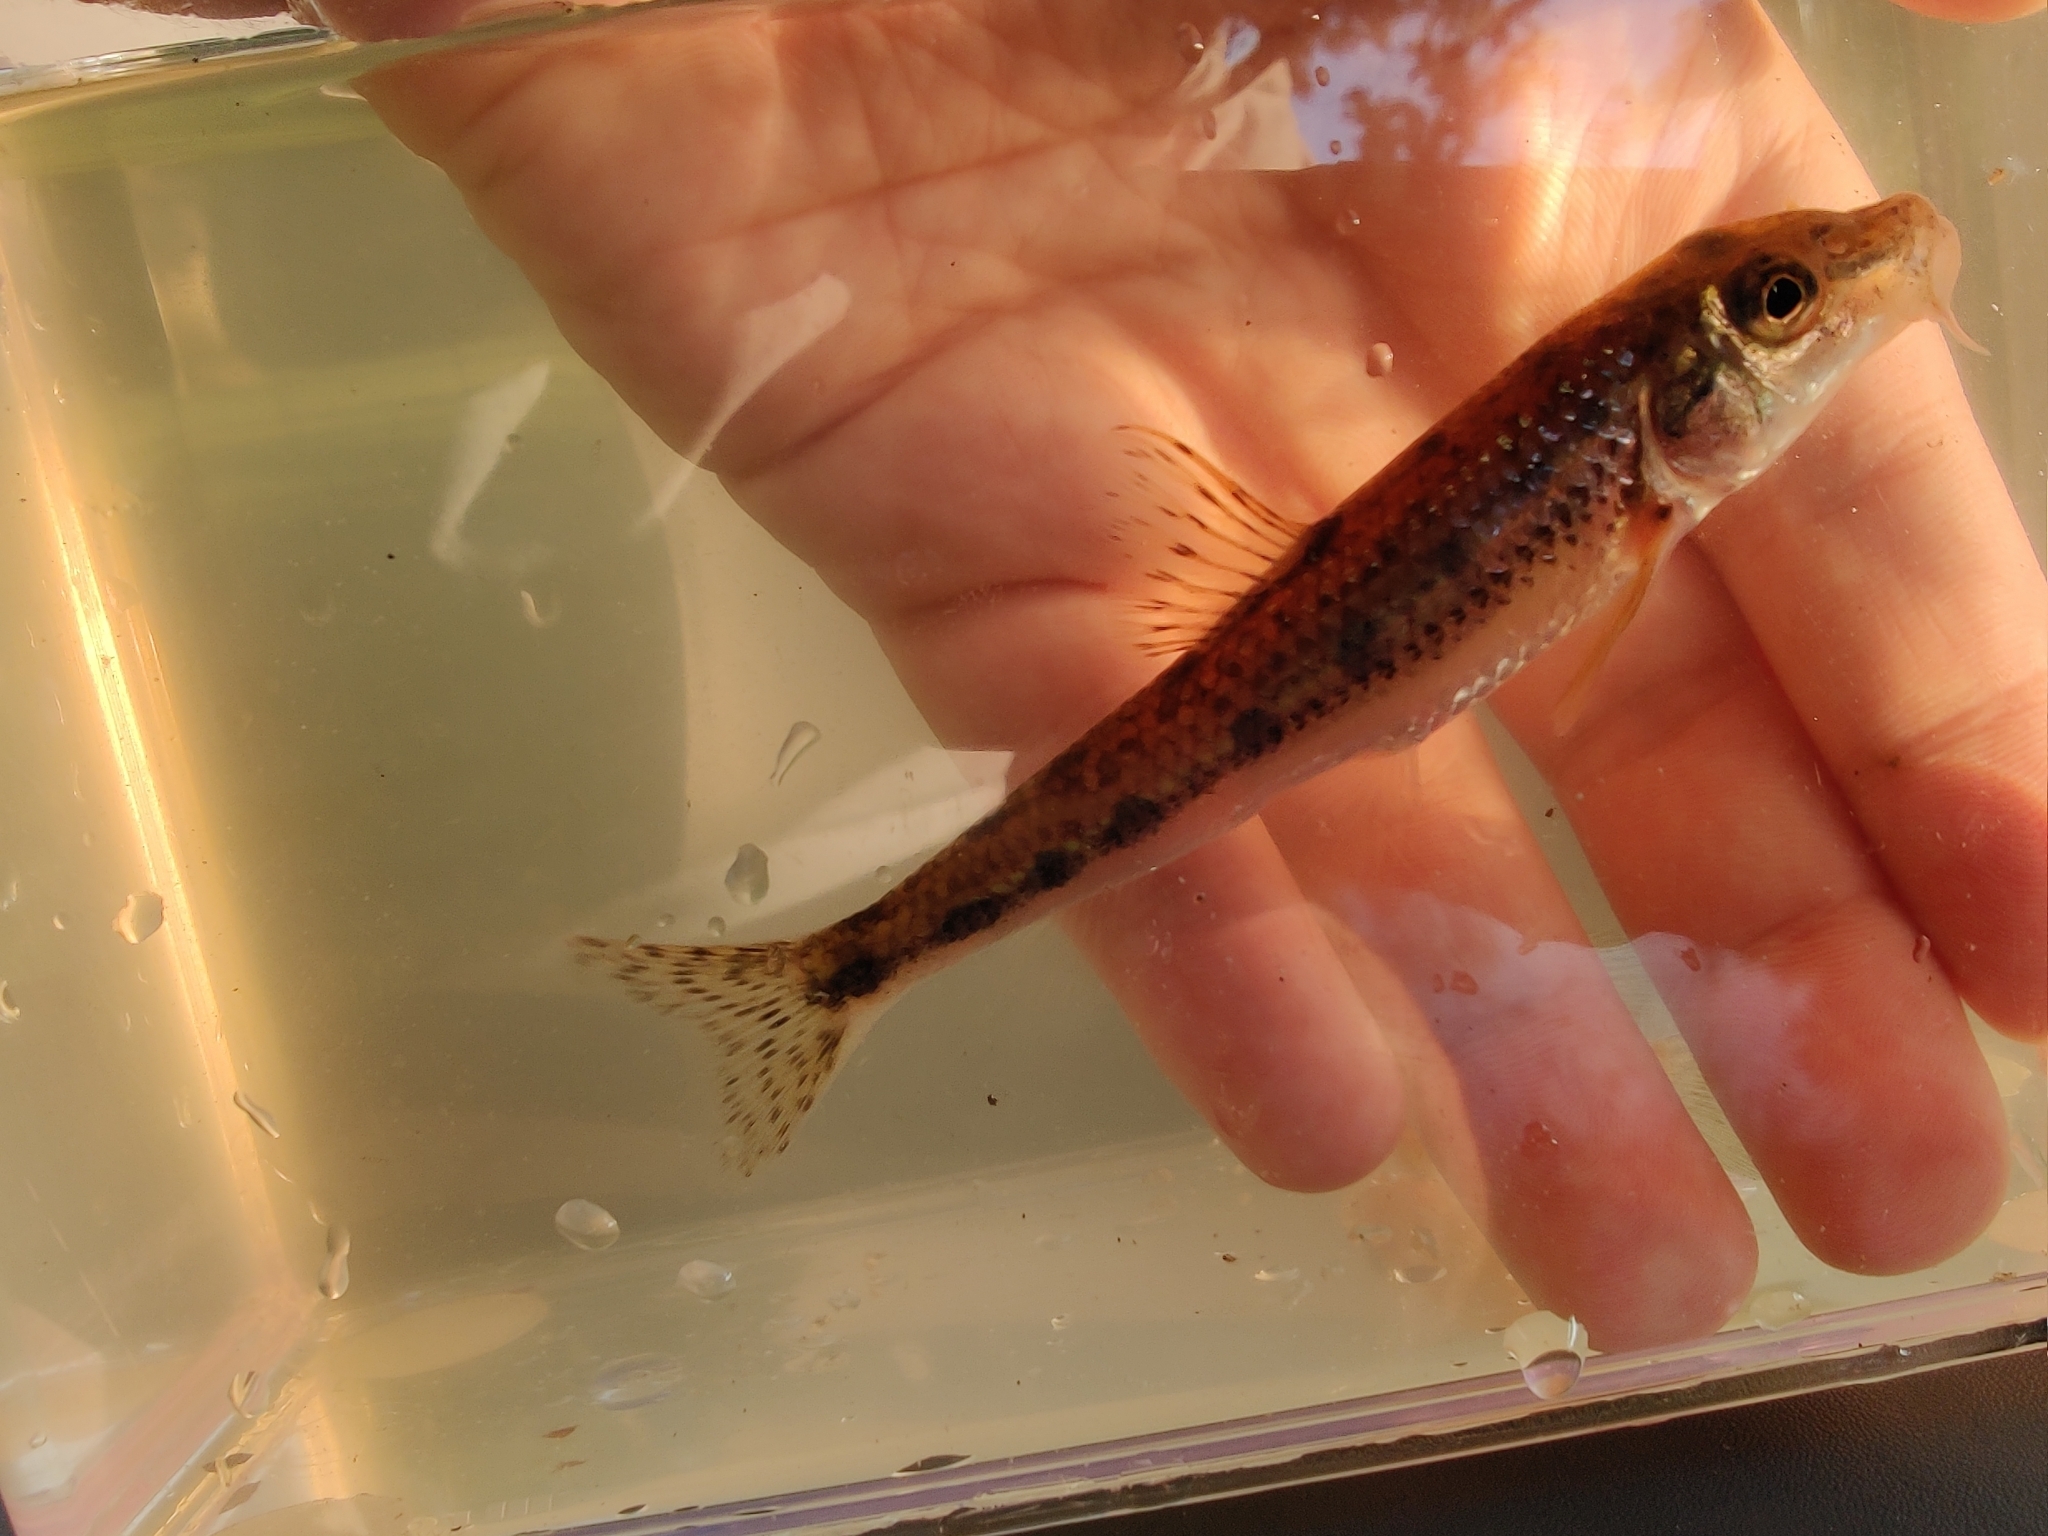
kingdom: Animalia
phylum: Chordata
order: Cypriniformes
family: Cyprinidae
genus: Gobio
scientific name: Gobio gobio
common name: Gudgeon
